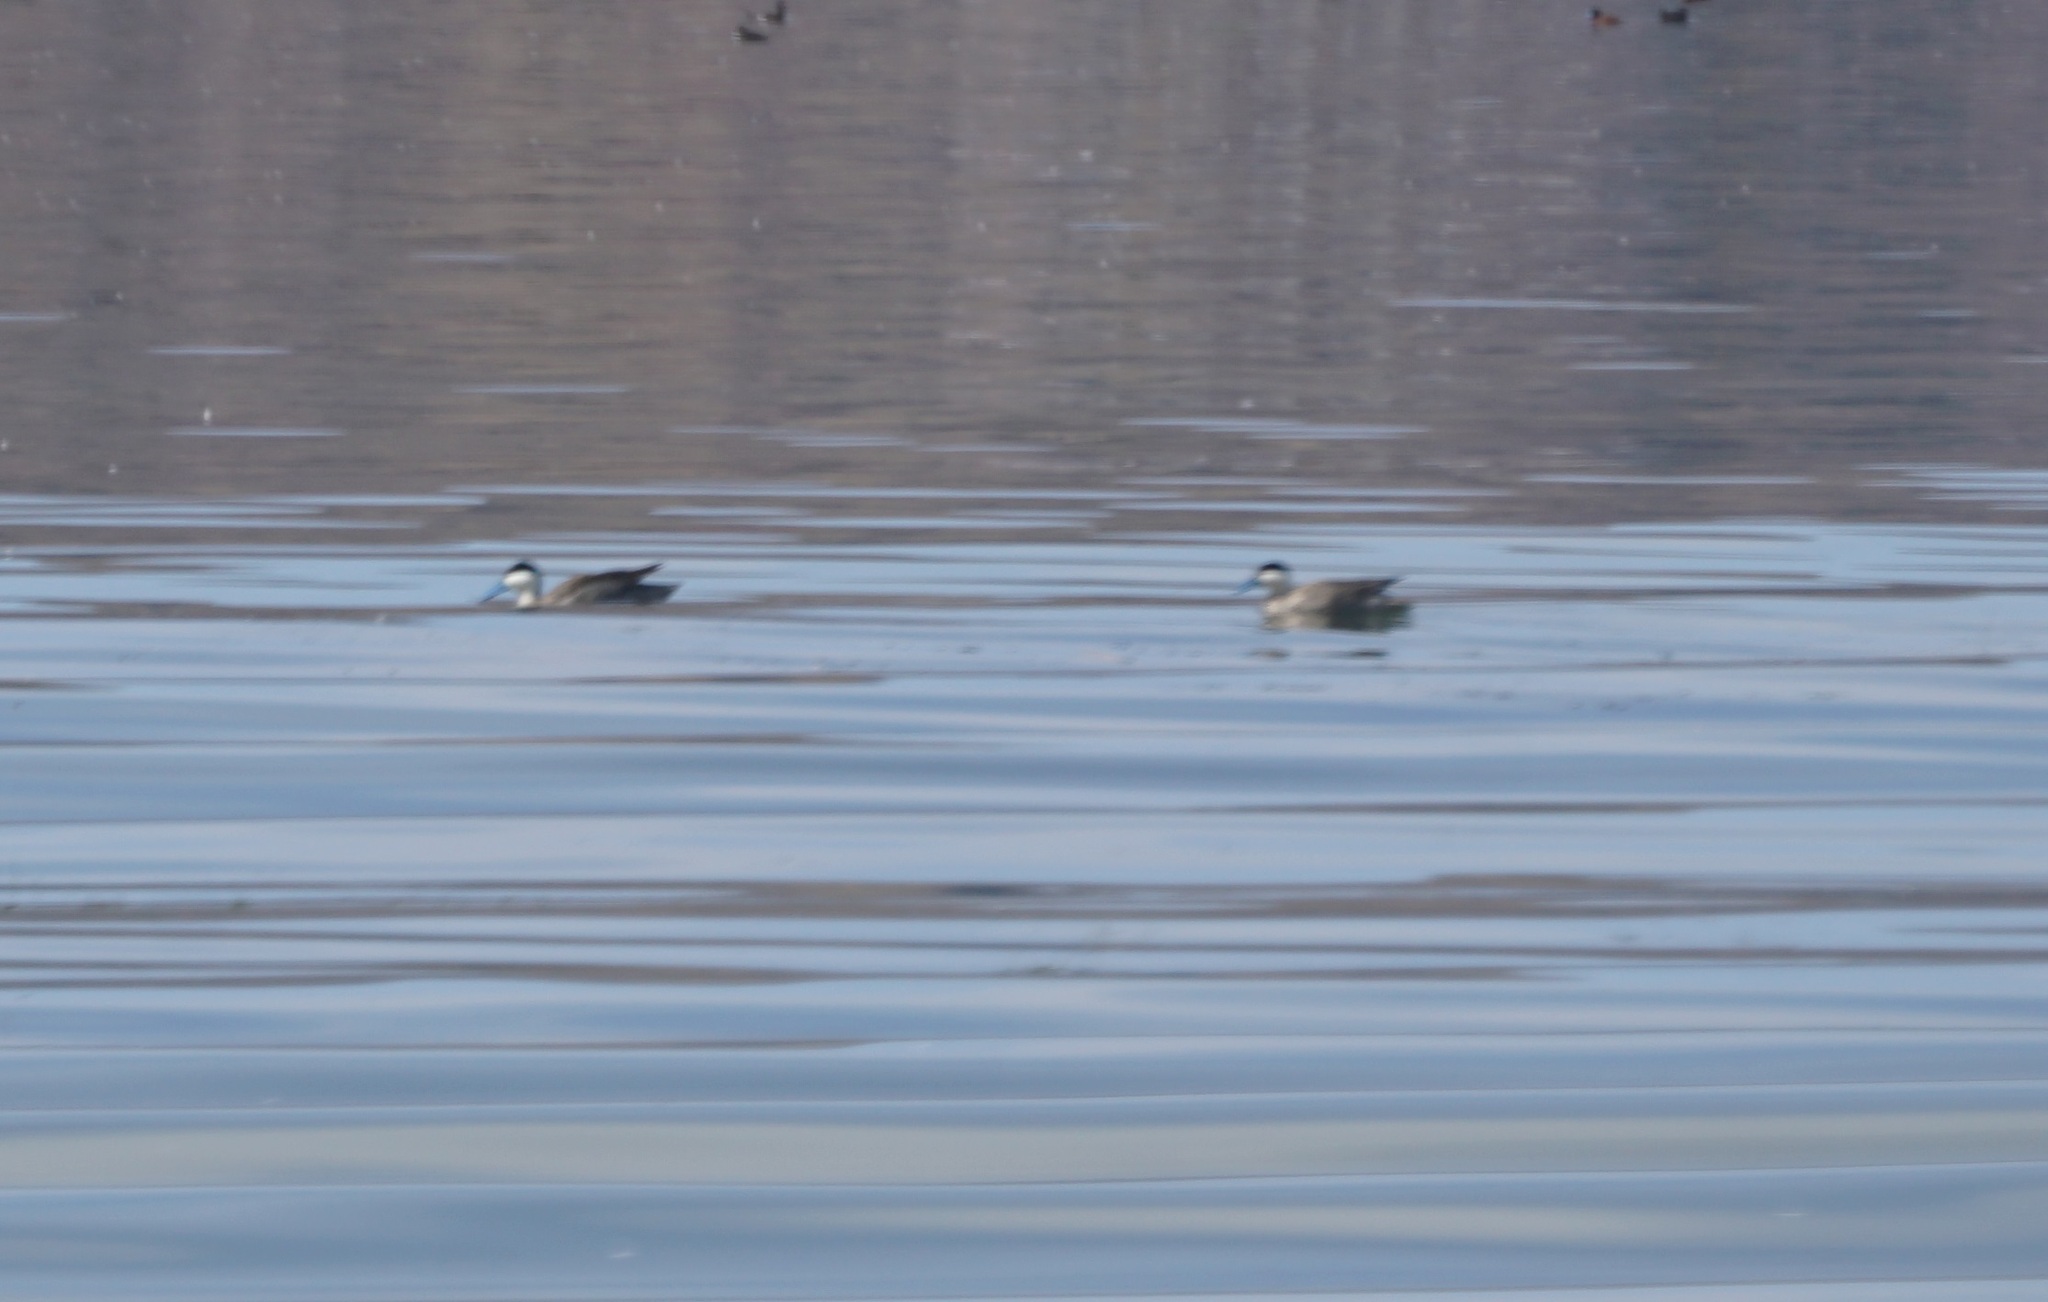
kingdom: Animalia
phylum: Chordata
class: Aves
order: Anseriformes
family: Anatidae
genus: Spatula
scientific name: Spatula puna
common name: Puna teal
